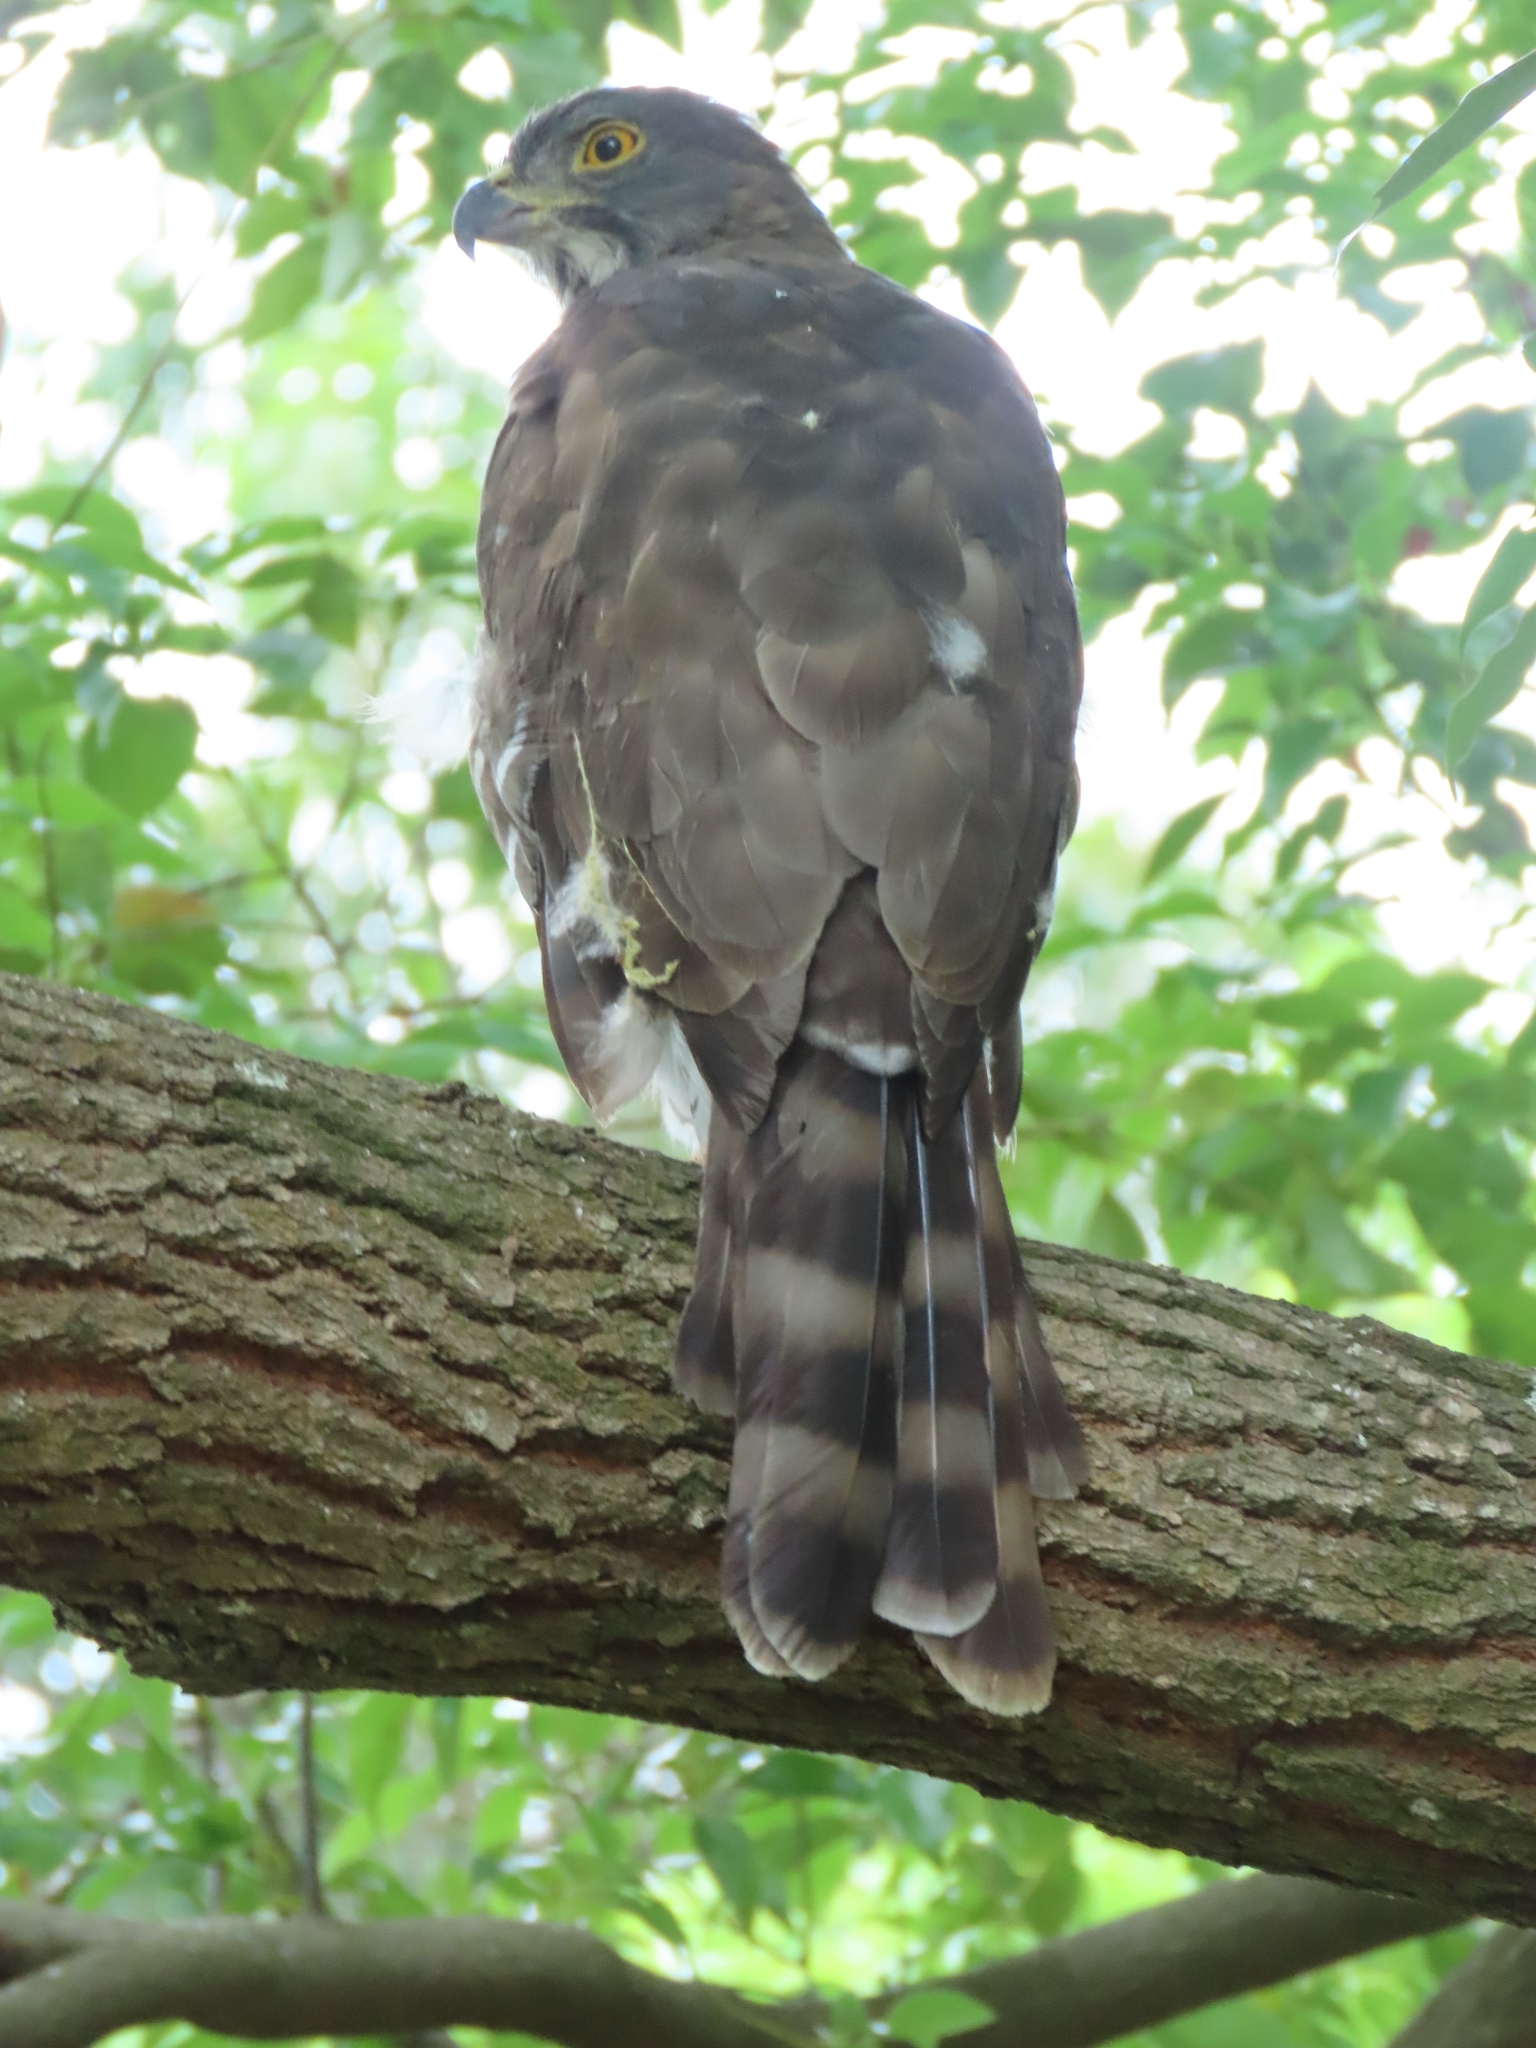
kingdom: Animalia
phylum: Chordata
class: Aves
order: Accipitriformes
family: Accipitridae
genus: Accipiter
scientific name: Accipiter trivirgatus
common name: Crested goshawk
